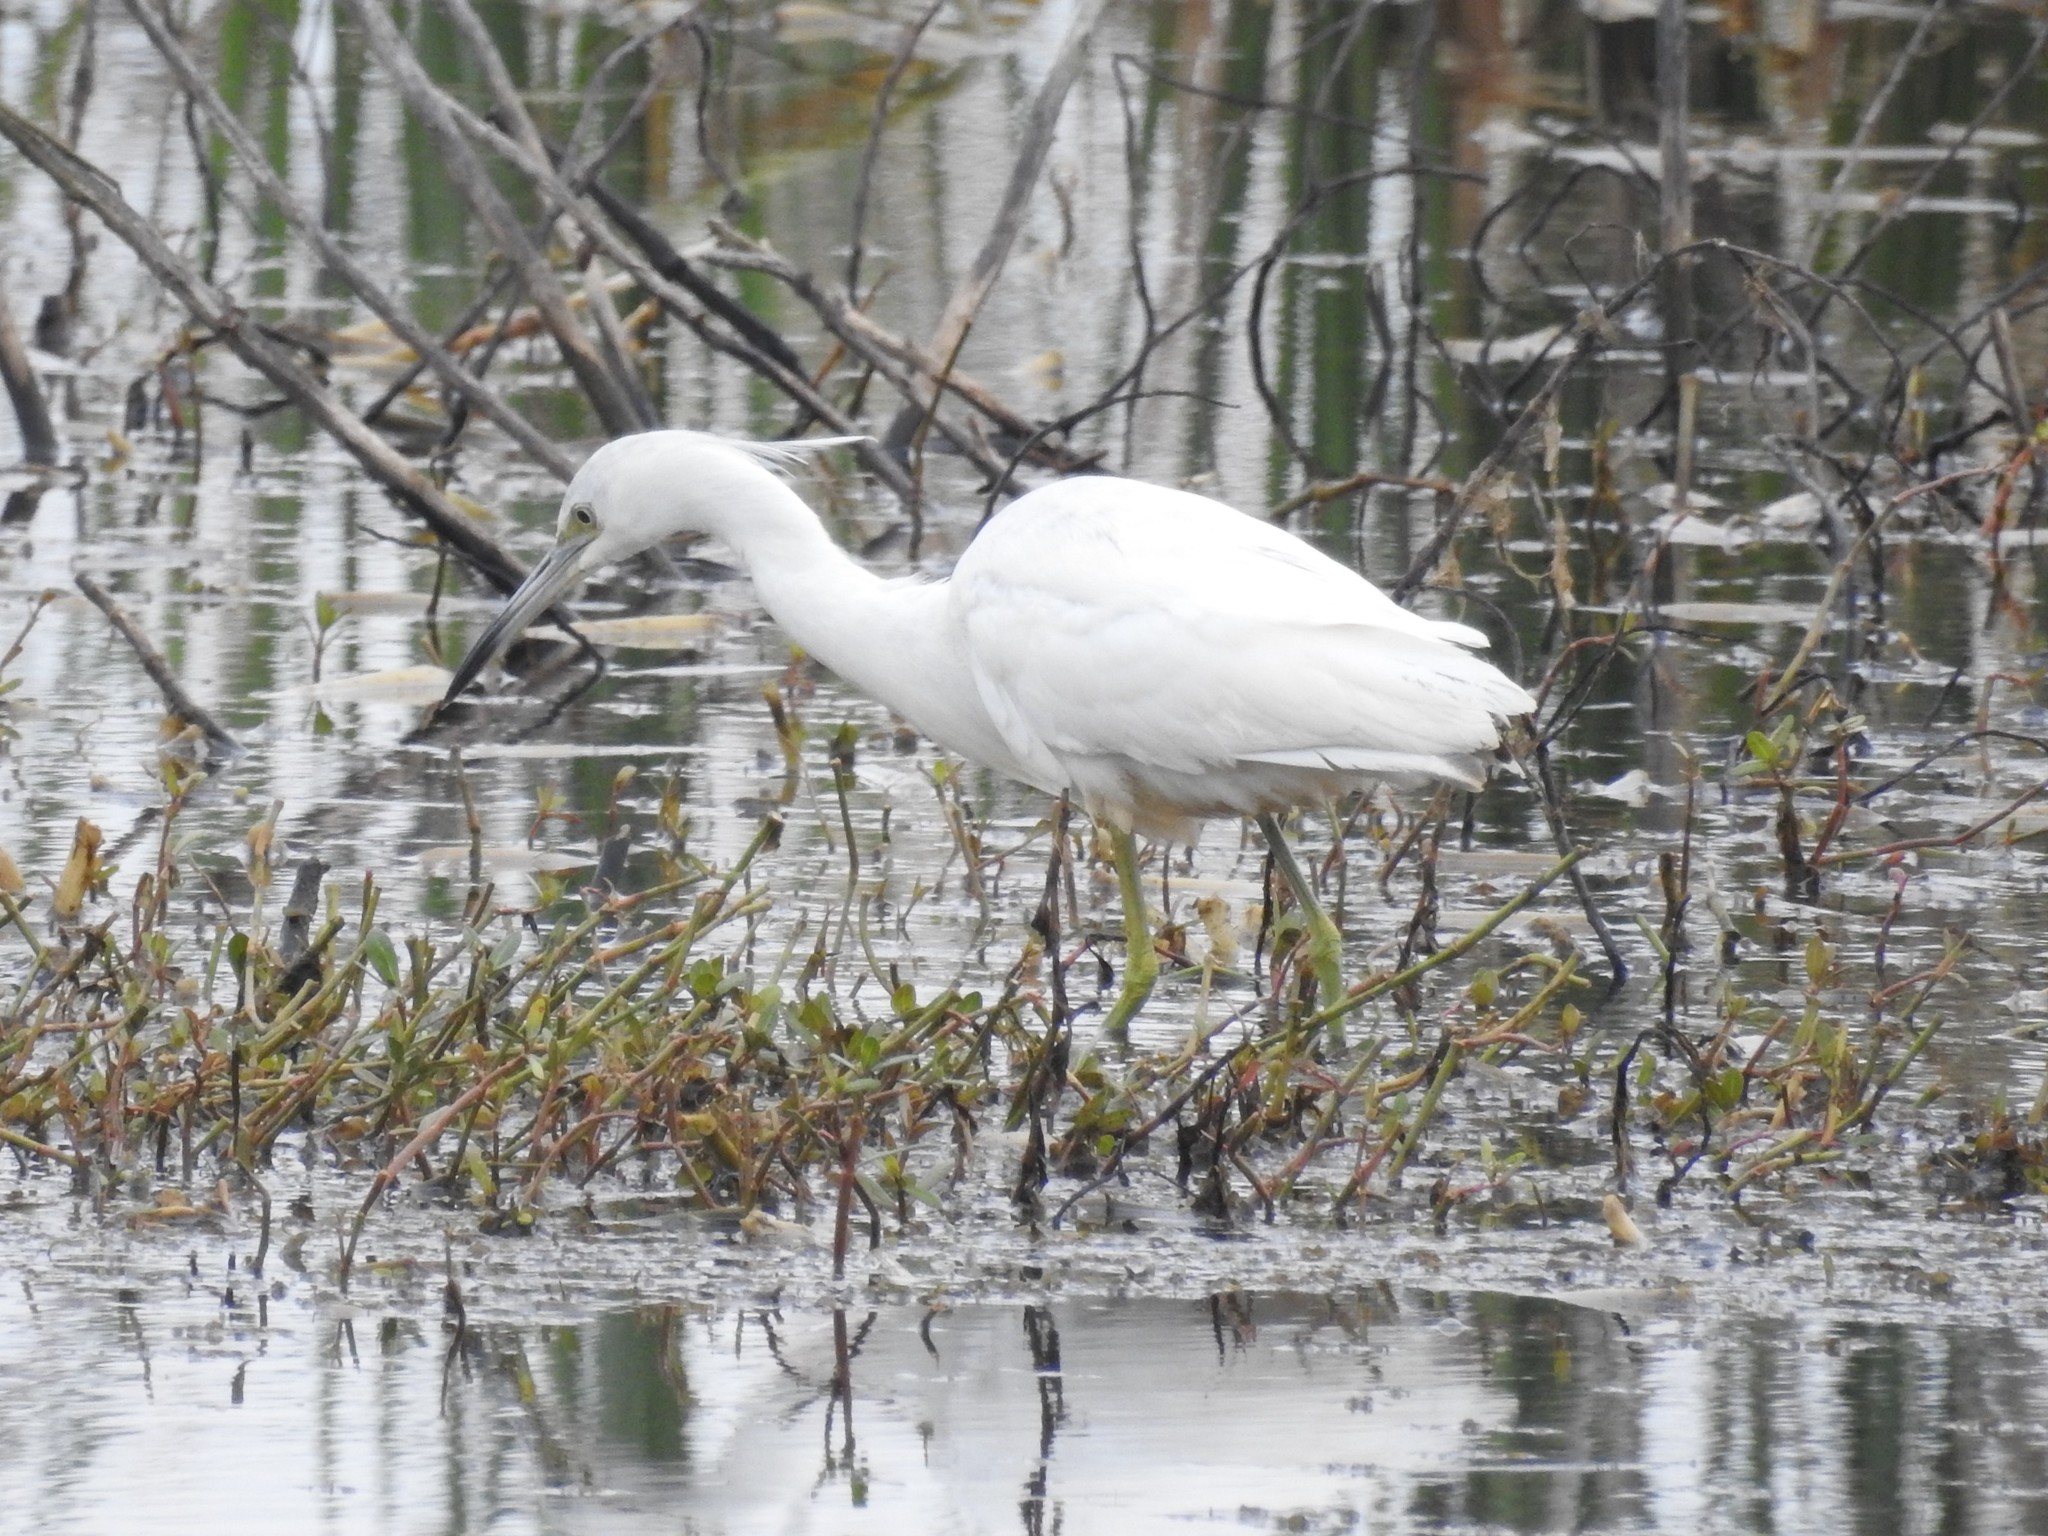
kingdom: Animalia
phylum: Chordata
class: Aves
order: Pelecaniformes
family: Ardeidae
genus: Egretta
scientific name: Egretta caerulea
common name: Little blue heron
